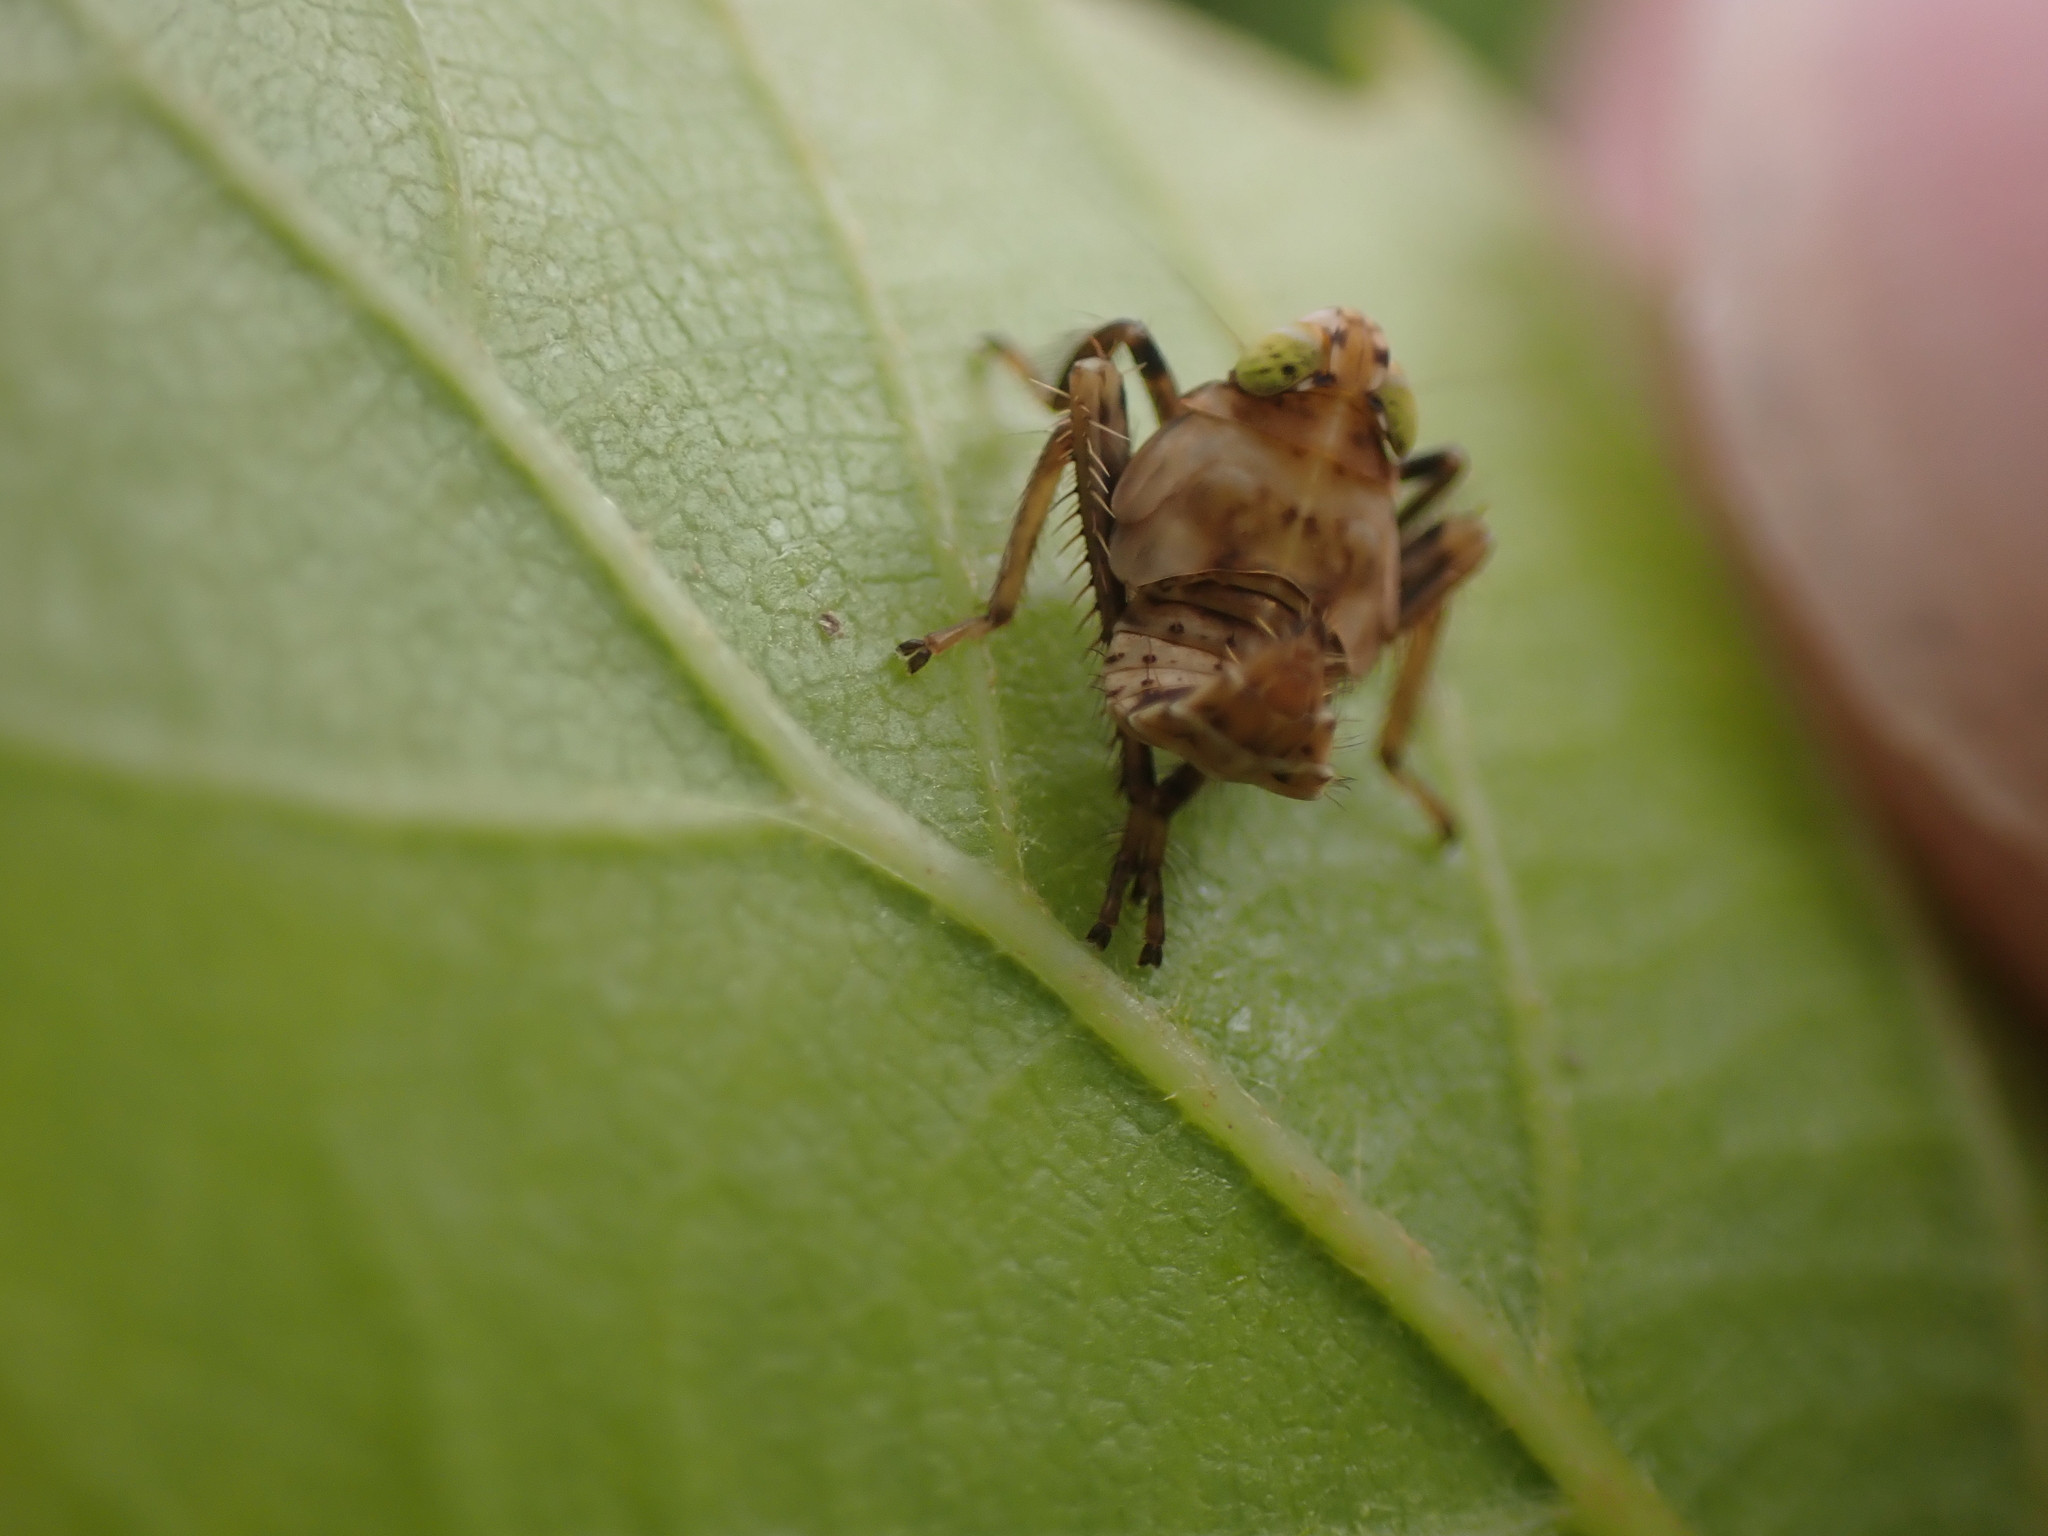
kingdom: Animalia
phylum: Arthropoda
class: Insecta
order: Hemiptera
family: Cicadellidae
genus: Jikradia
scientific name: Jikradia olitoria
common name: Coppery leafhopper
